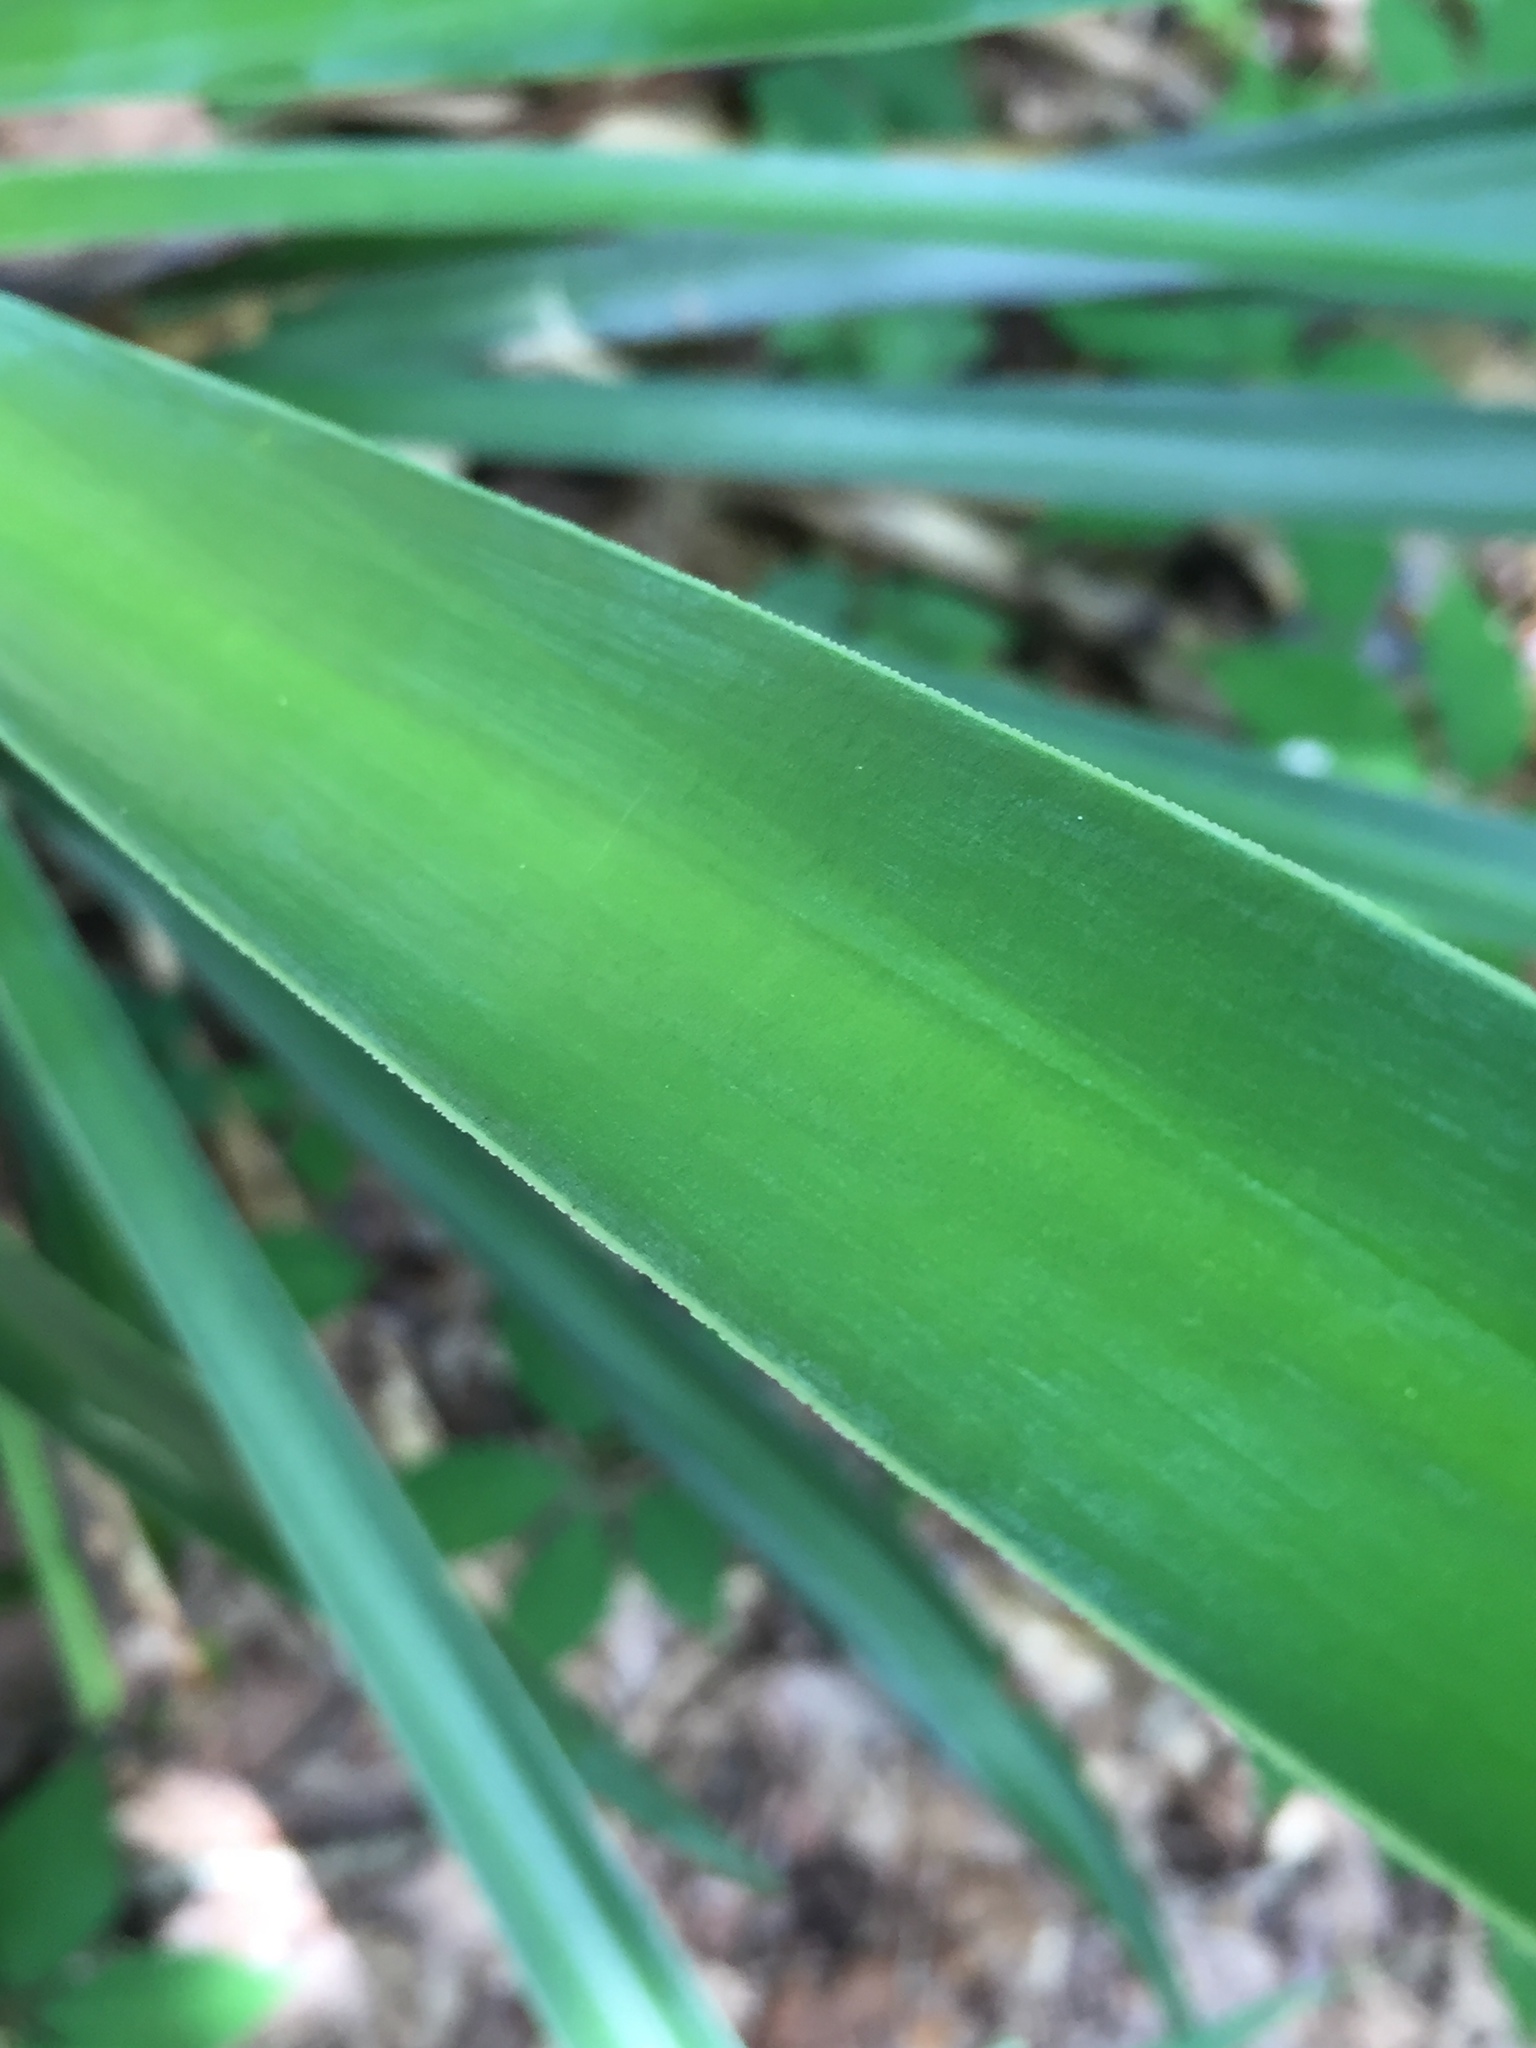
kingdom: Plantae
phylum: Tracheophyta
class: Liliopsida
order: Asparagales
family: Asparagaceae
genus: Yucca
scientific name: Yucca aloifolia
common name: Aloe yucca
